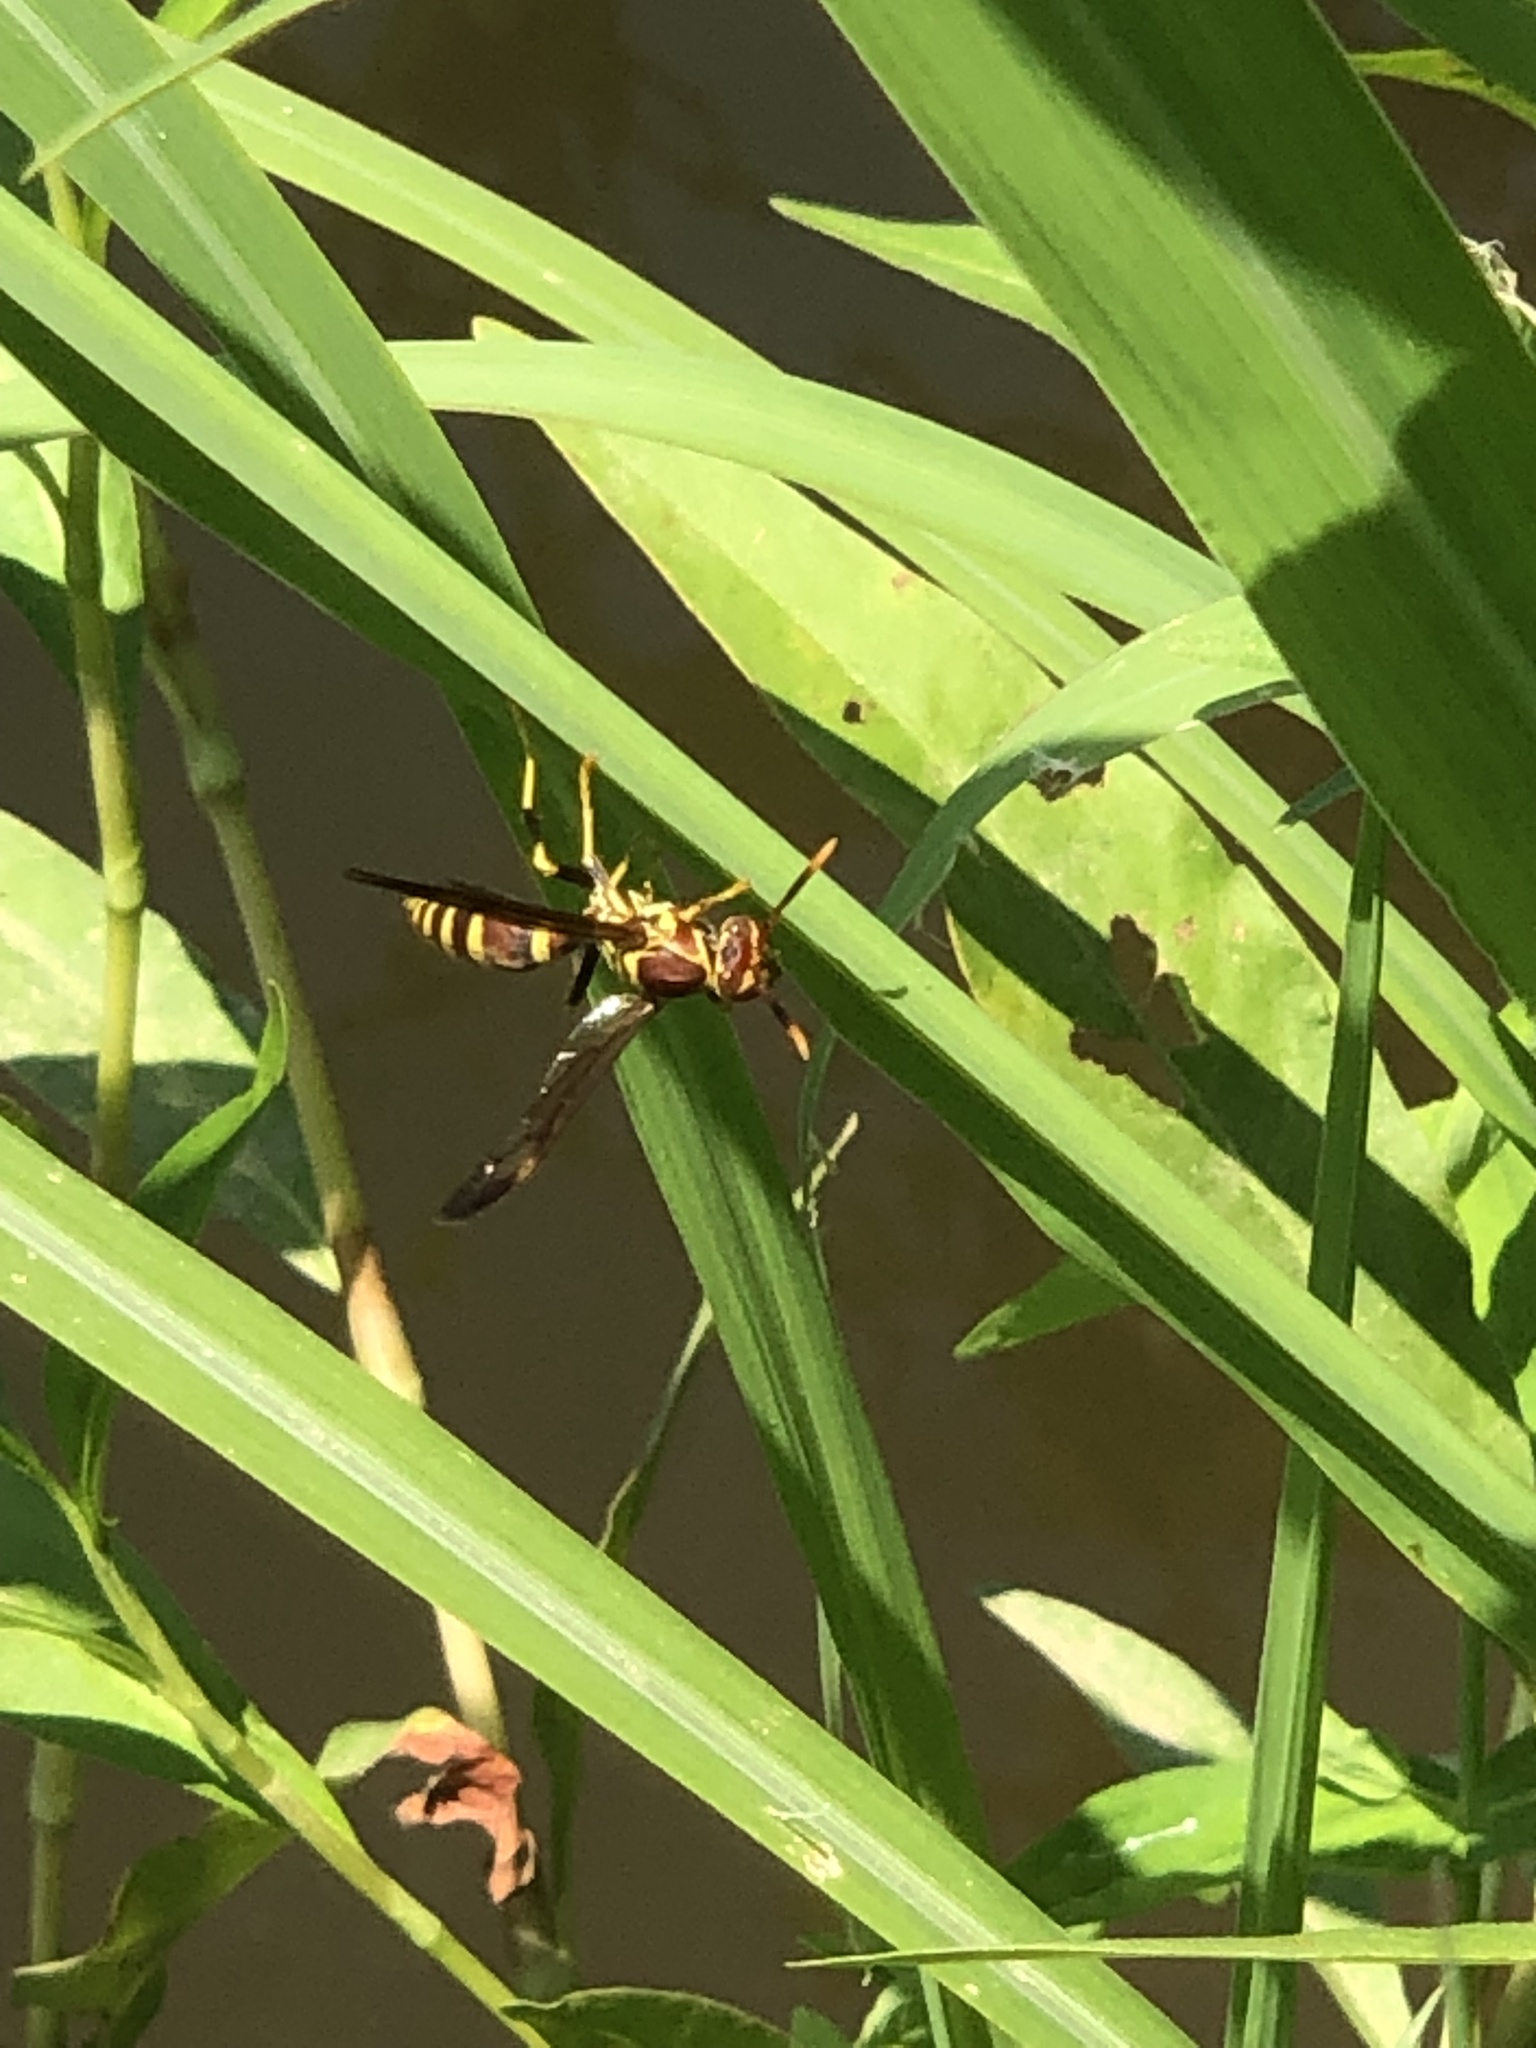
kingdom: Animalia
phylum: Arthropoda
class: Insecta
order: Hymenoptera
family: Eumenidae
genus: Polistes
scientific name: Polistes exclamans
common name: Paper wasp
